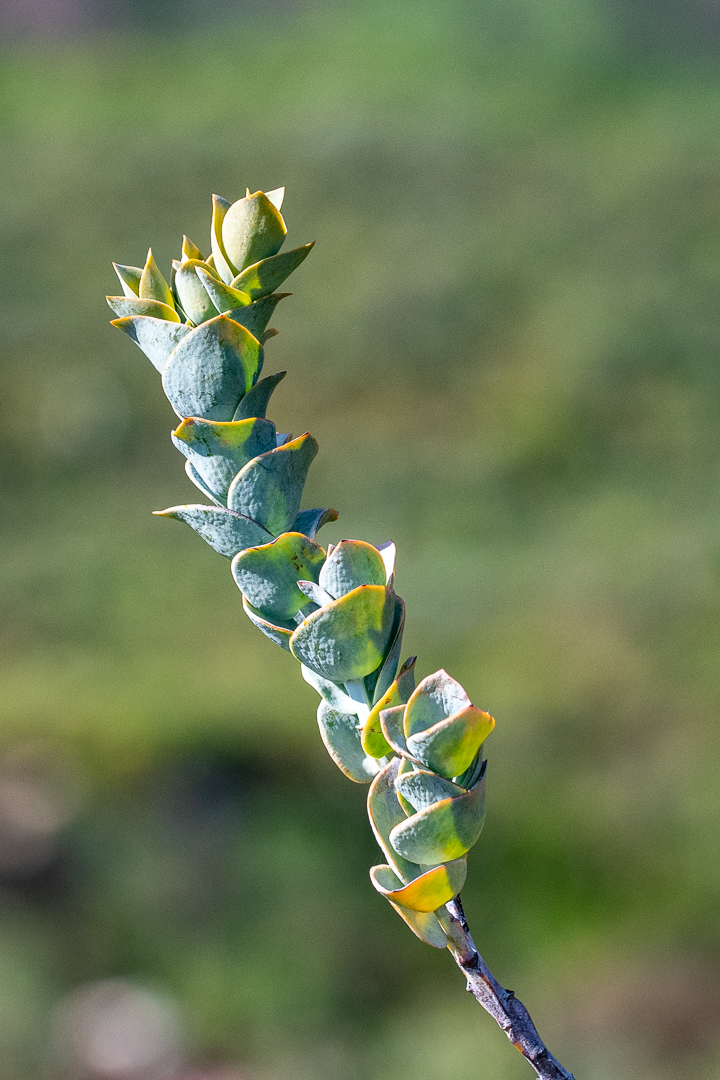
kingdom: Plantae
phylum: Tracheophyta
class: Magnoliopsida
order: Santalales
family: Thesiaceae
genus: Thesium
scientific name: Thesium euphorbioides
